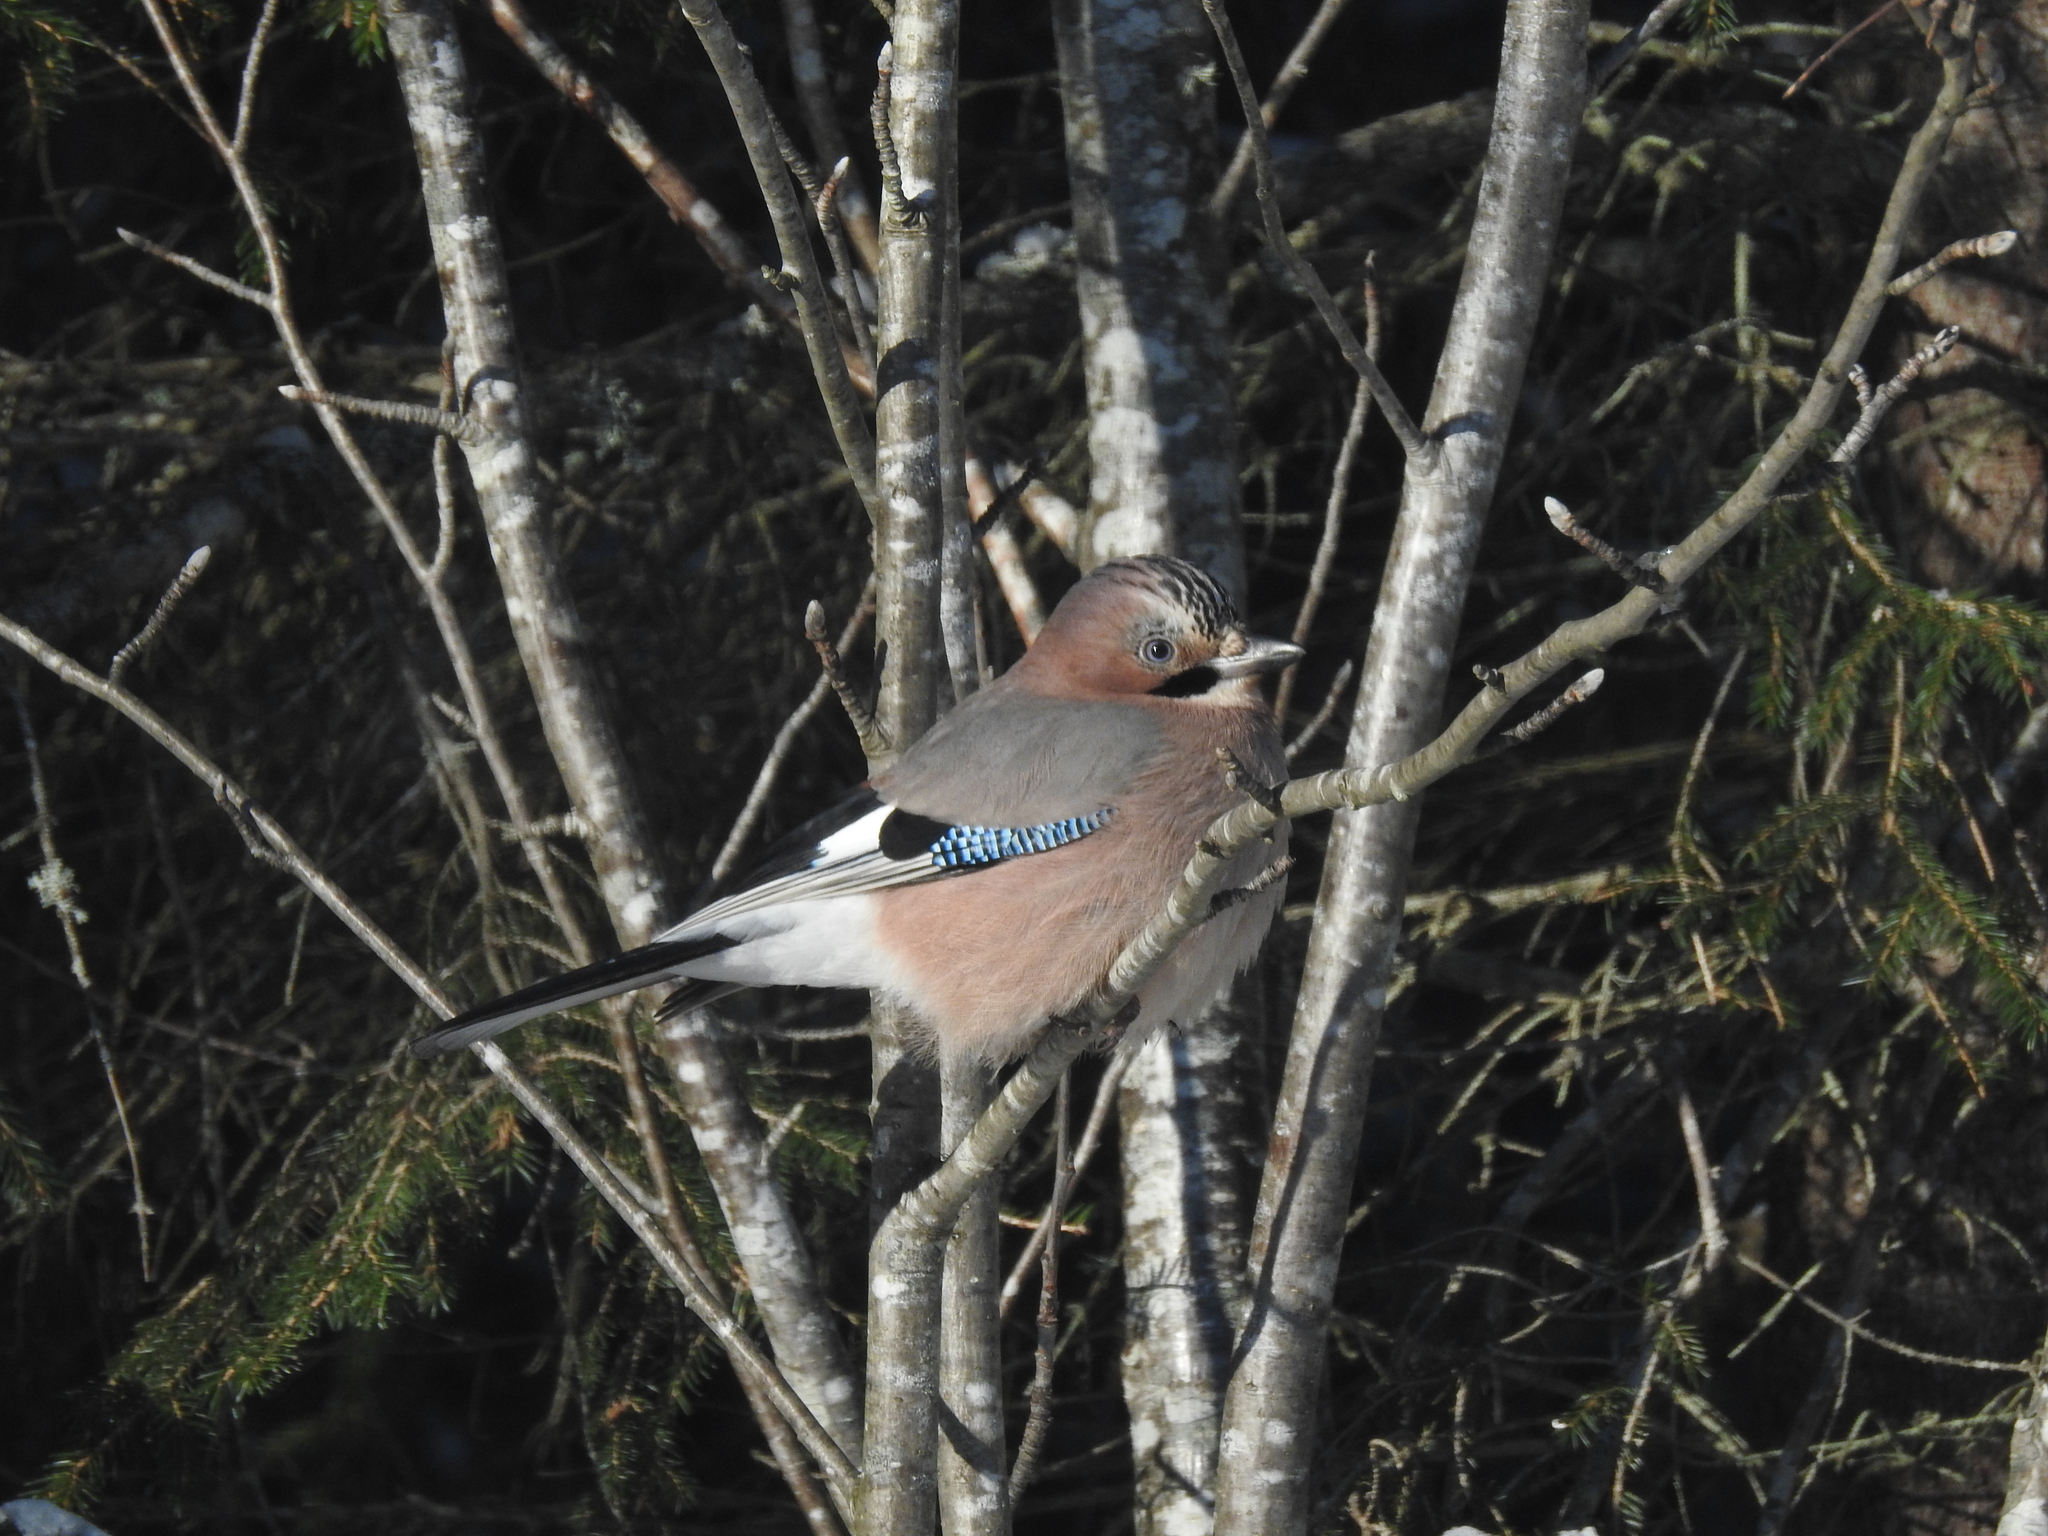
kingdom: Animalia
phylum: Chordata
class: Aves
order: Passeriformes
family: Corvidae
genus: Garrulus
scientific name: Garrulus glandarius
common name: Eurasian jay
